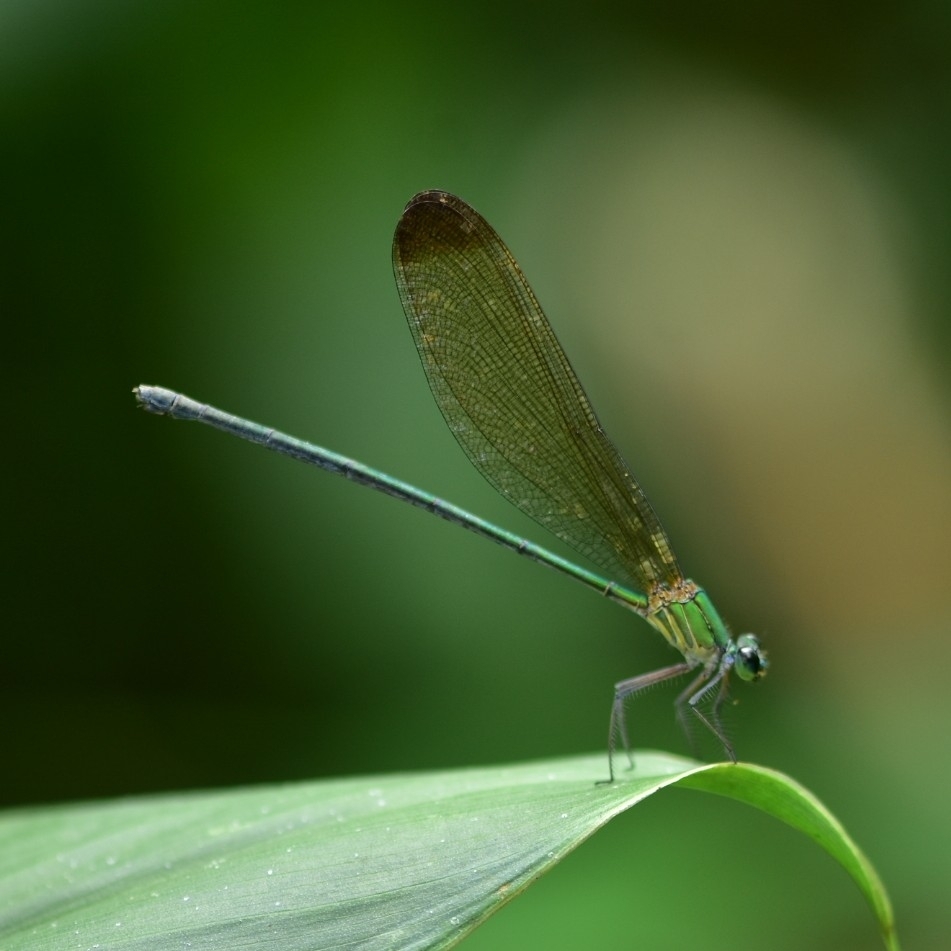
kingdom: Animalia
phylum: Arthropoda
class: Insecta
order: Odonata
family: Calopterygidae
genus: Vestalis
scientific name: Vestalis apicalis
